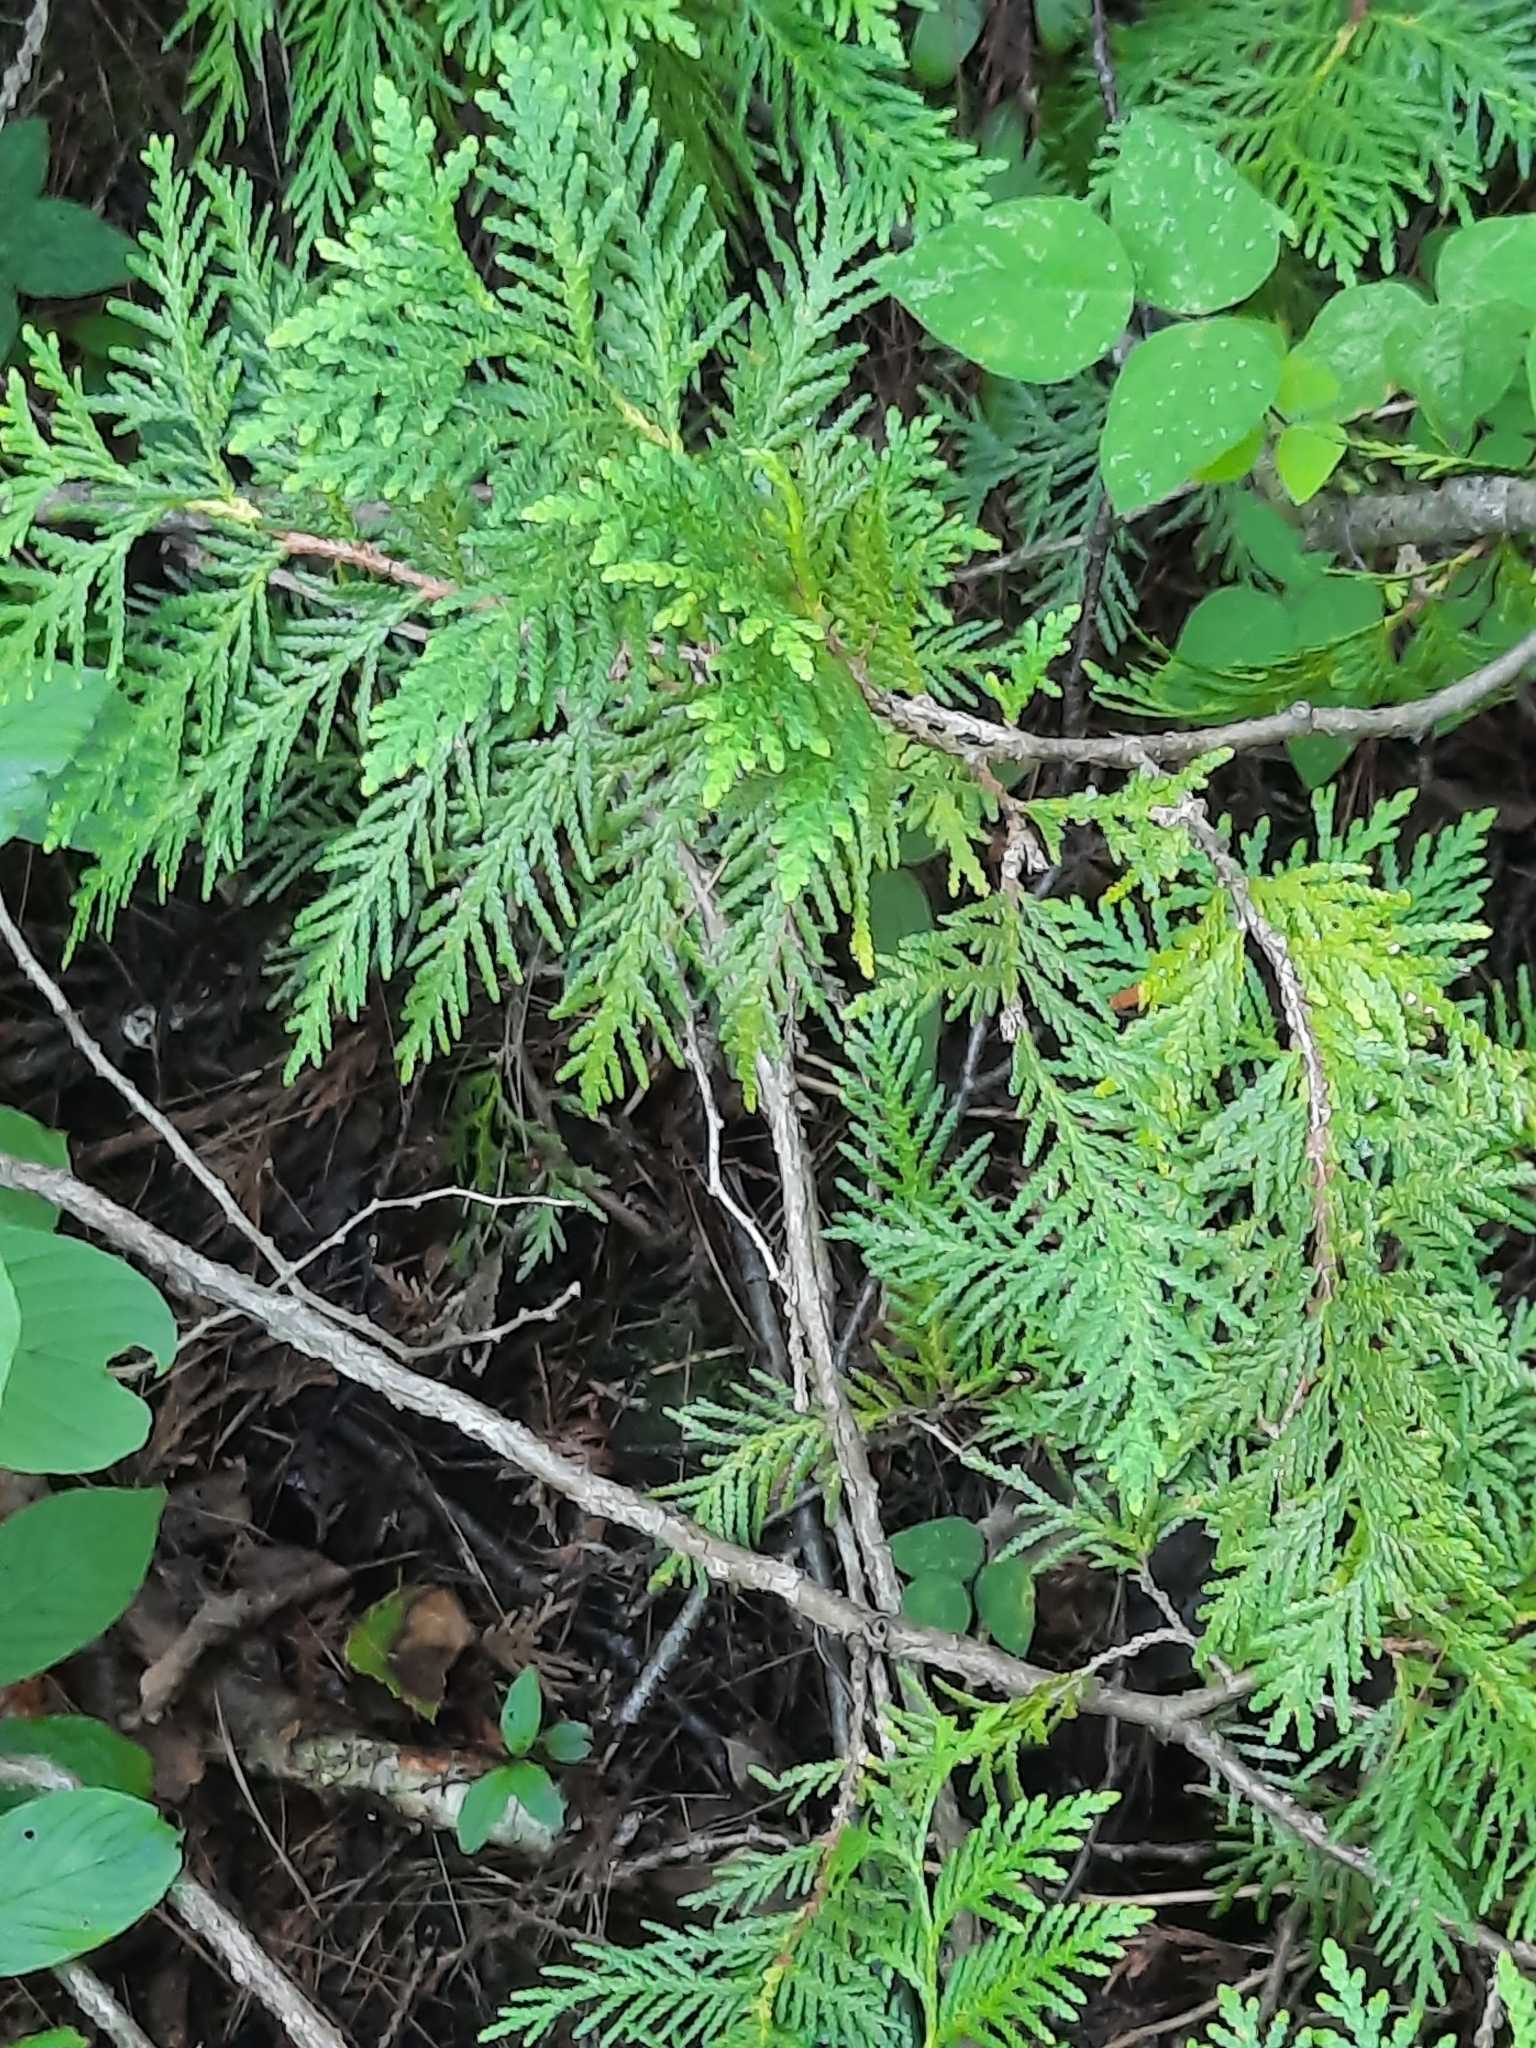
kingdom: Plantae
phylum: Tracheophyta
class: Pinopsida
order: Pinales
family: Cupressaceae
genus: Thuja
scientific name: Thuja occidentalis
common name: Northern white-cedar
